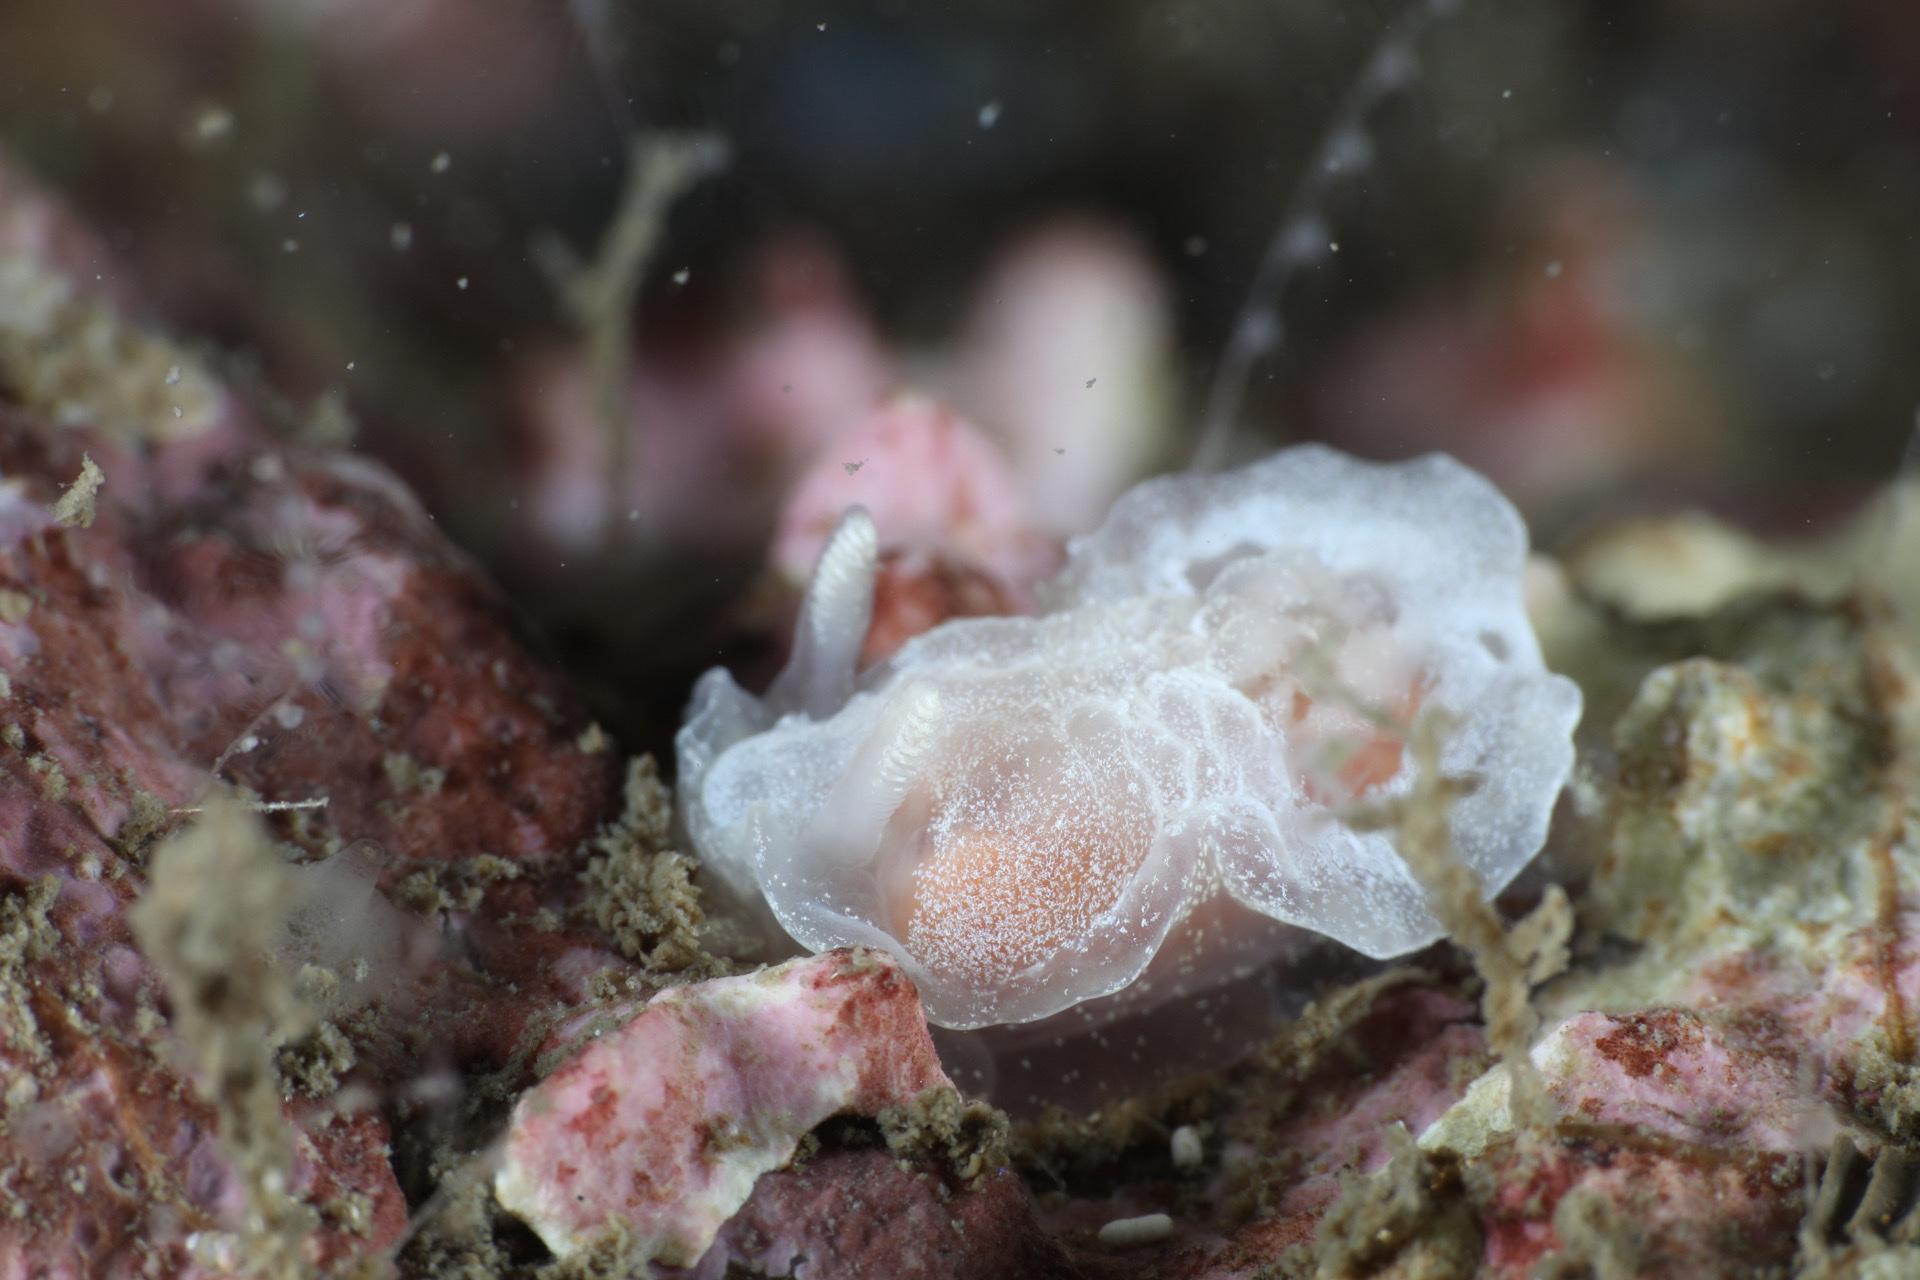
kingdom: Animalia
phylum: Mollusca
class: Gastropoda
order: Nudibranchia
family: Goniodorididae
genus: Okenia
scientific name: Okenia
